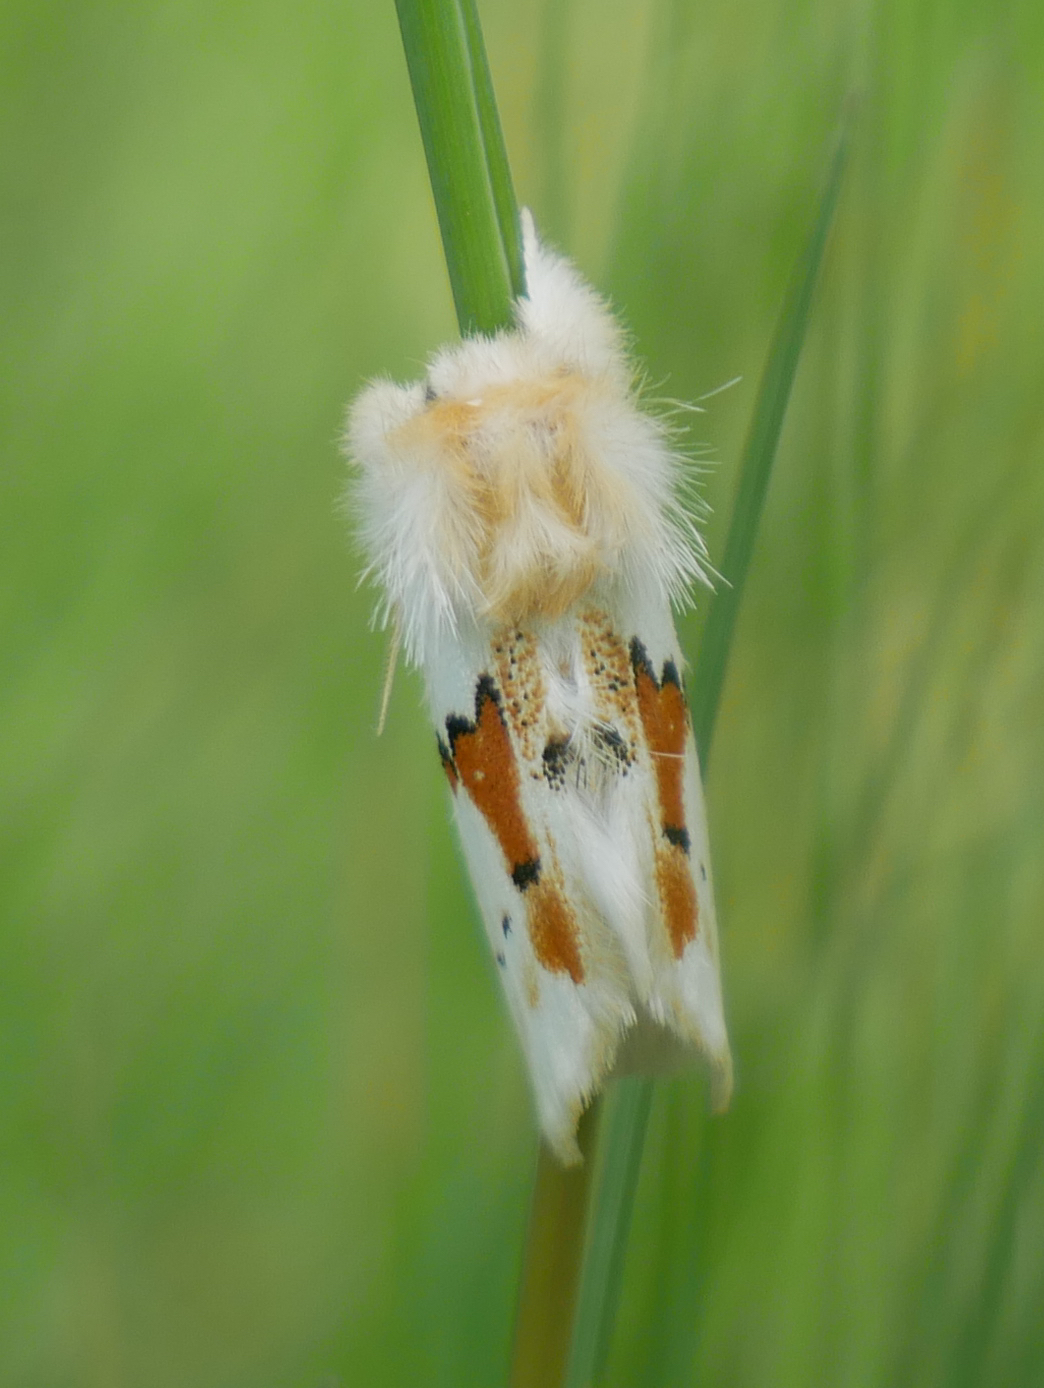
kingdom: Animalia
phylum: Arthropoda
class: Insecta
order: Lepidoptera
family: Notodontidae
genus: Leucodonta
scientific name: Leucodonta bicoloria
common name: White prominent
